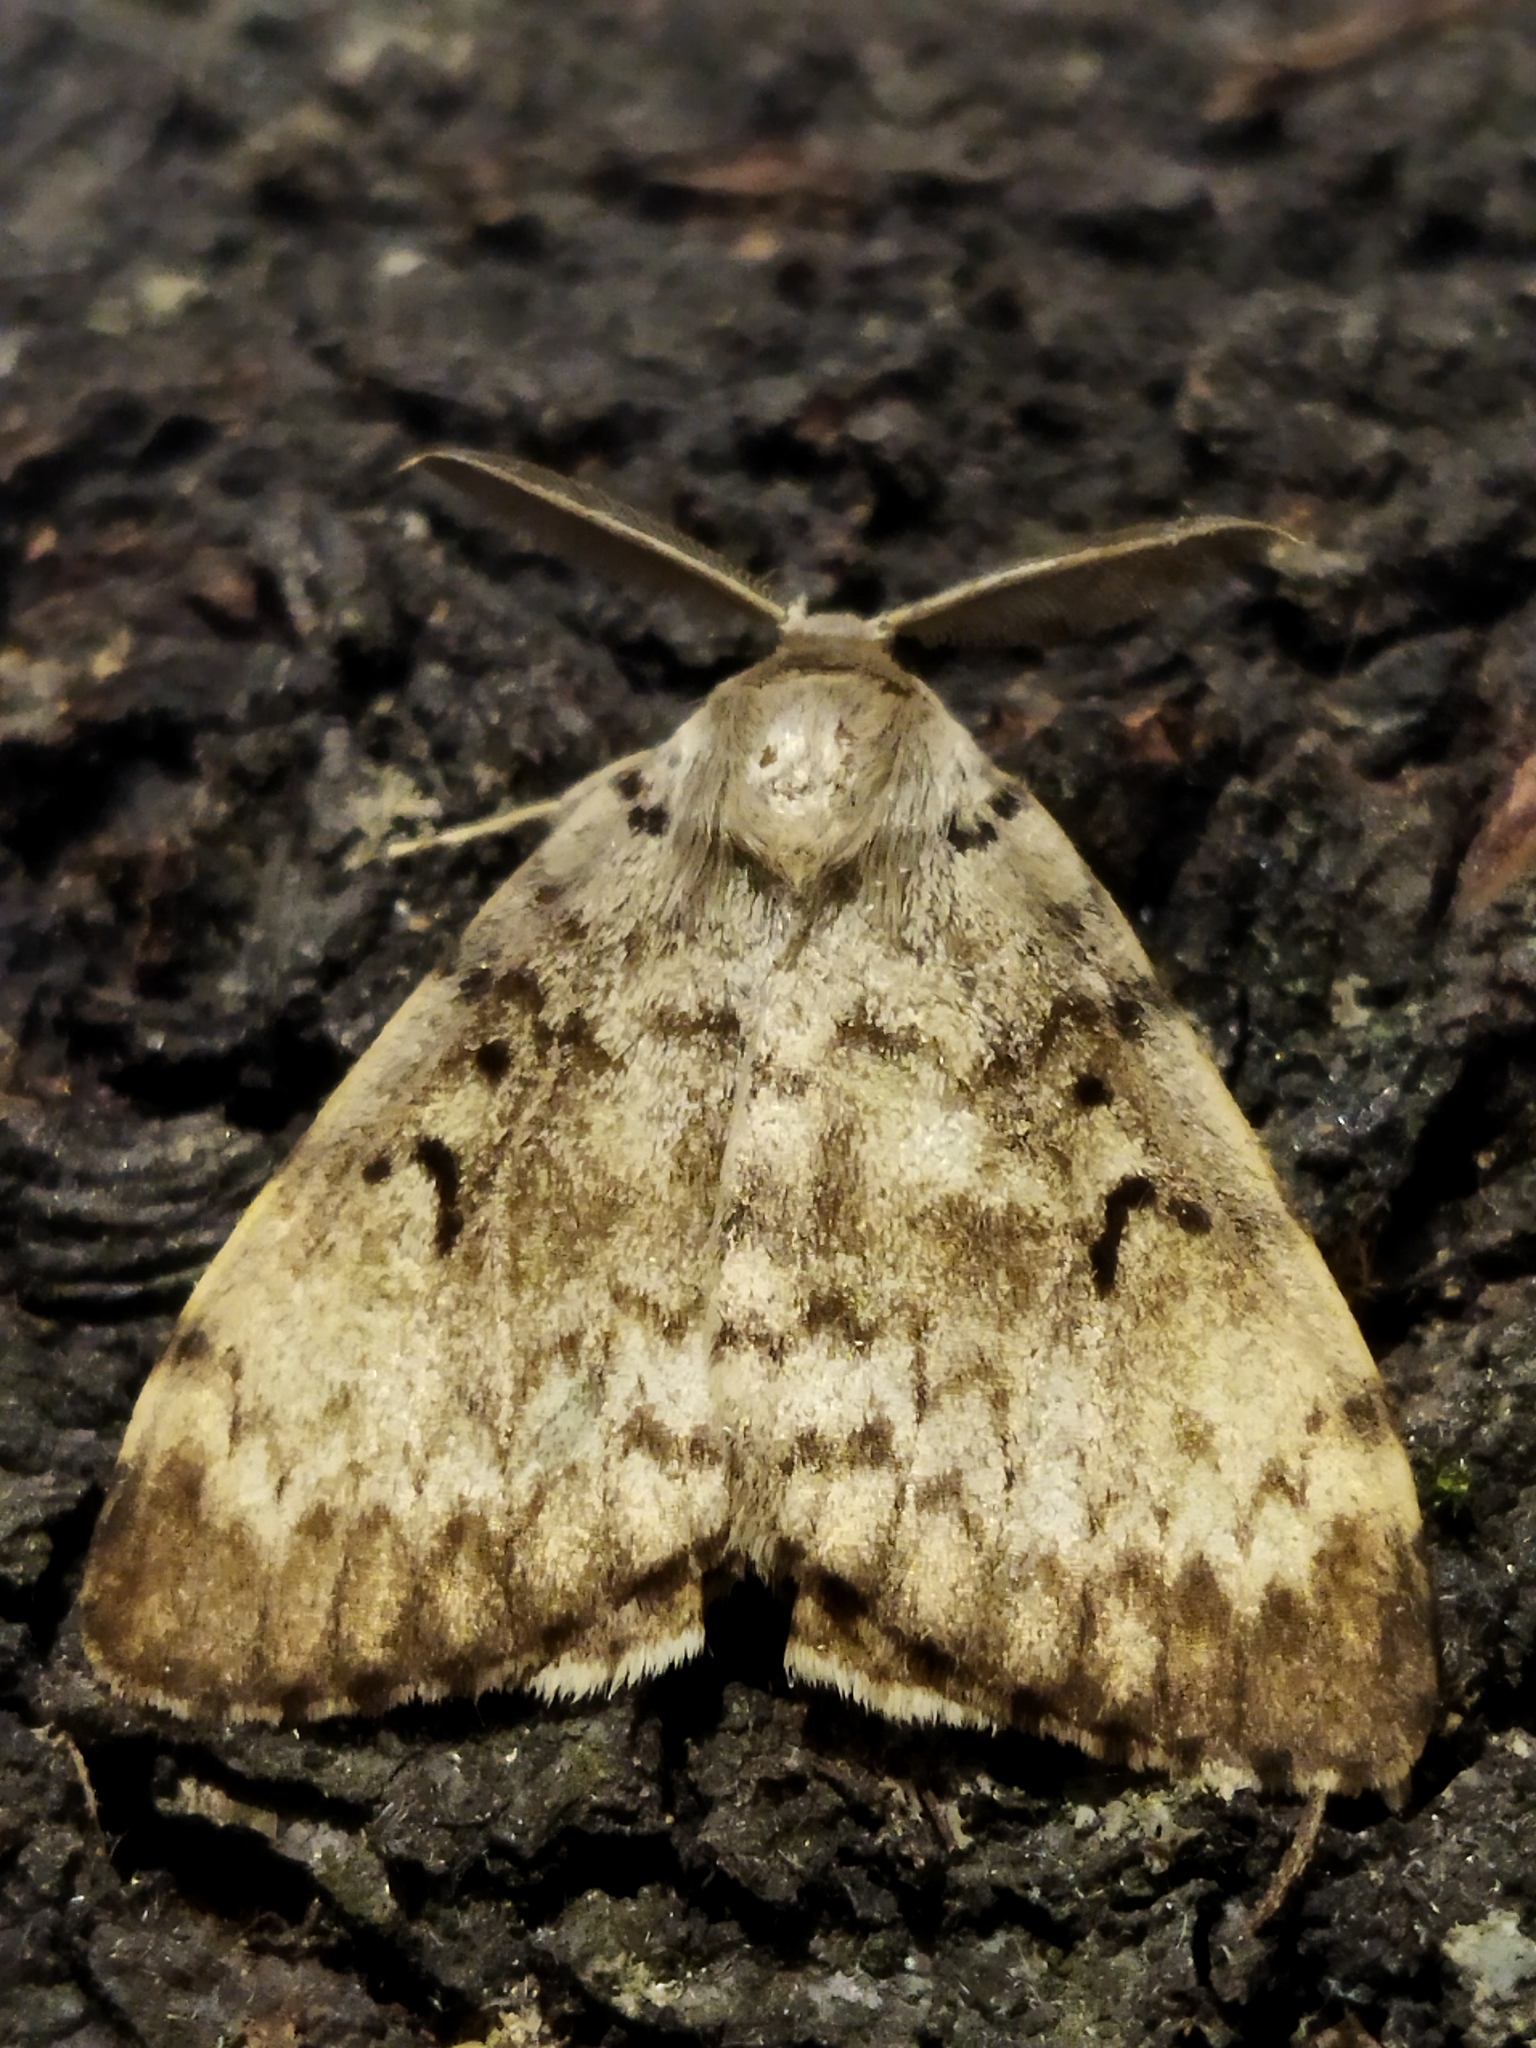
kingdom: Animalia
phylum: Arthropoda
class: Insecta
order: Lepidoptera
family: Erebidae
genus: Lymantria
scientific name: Lymantria dispar
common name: Gypsy moth
